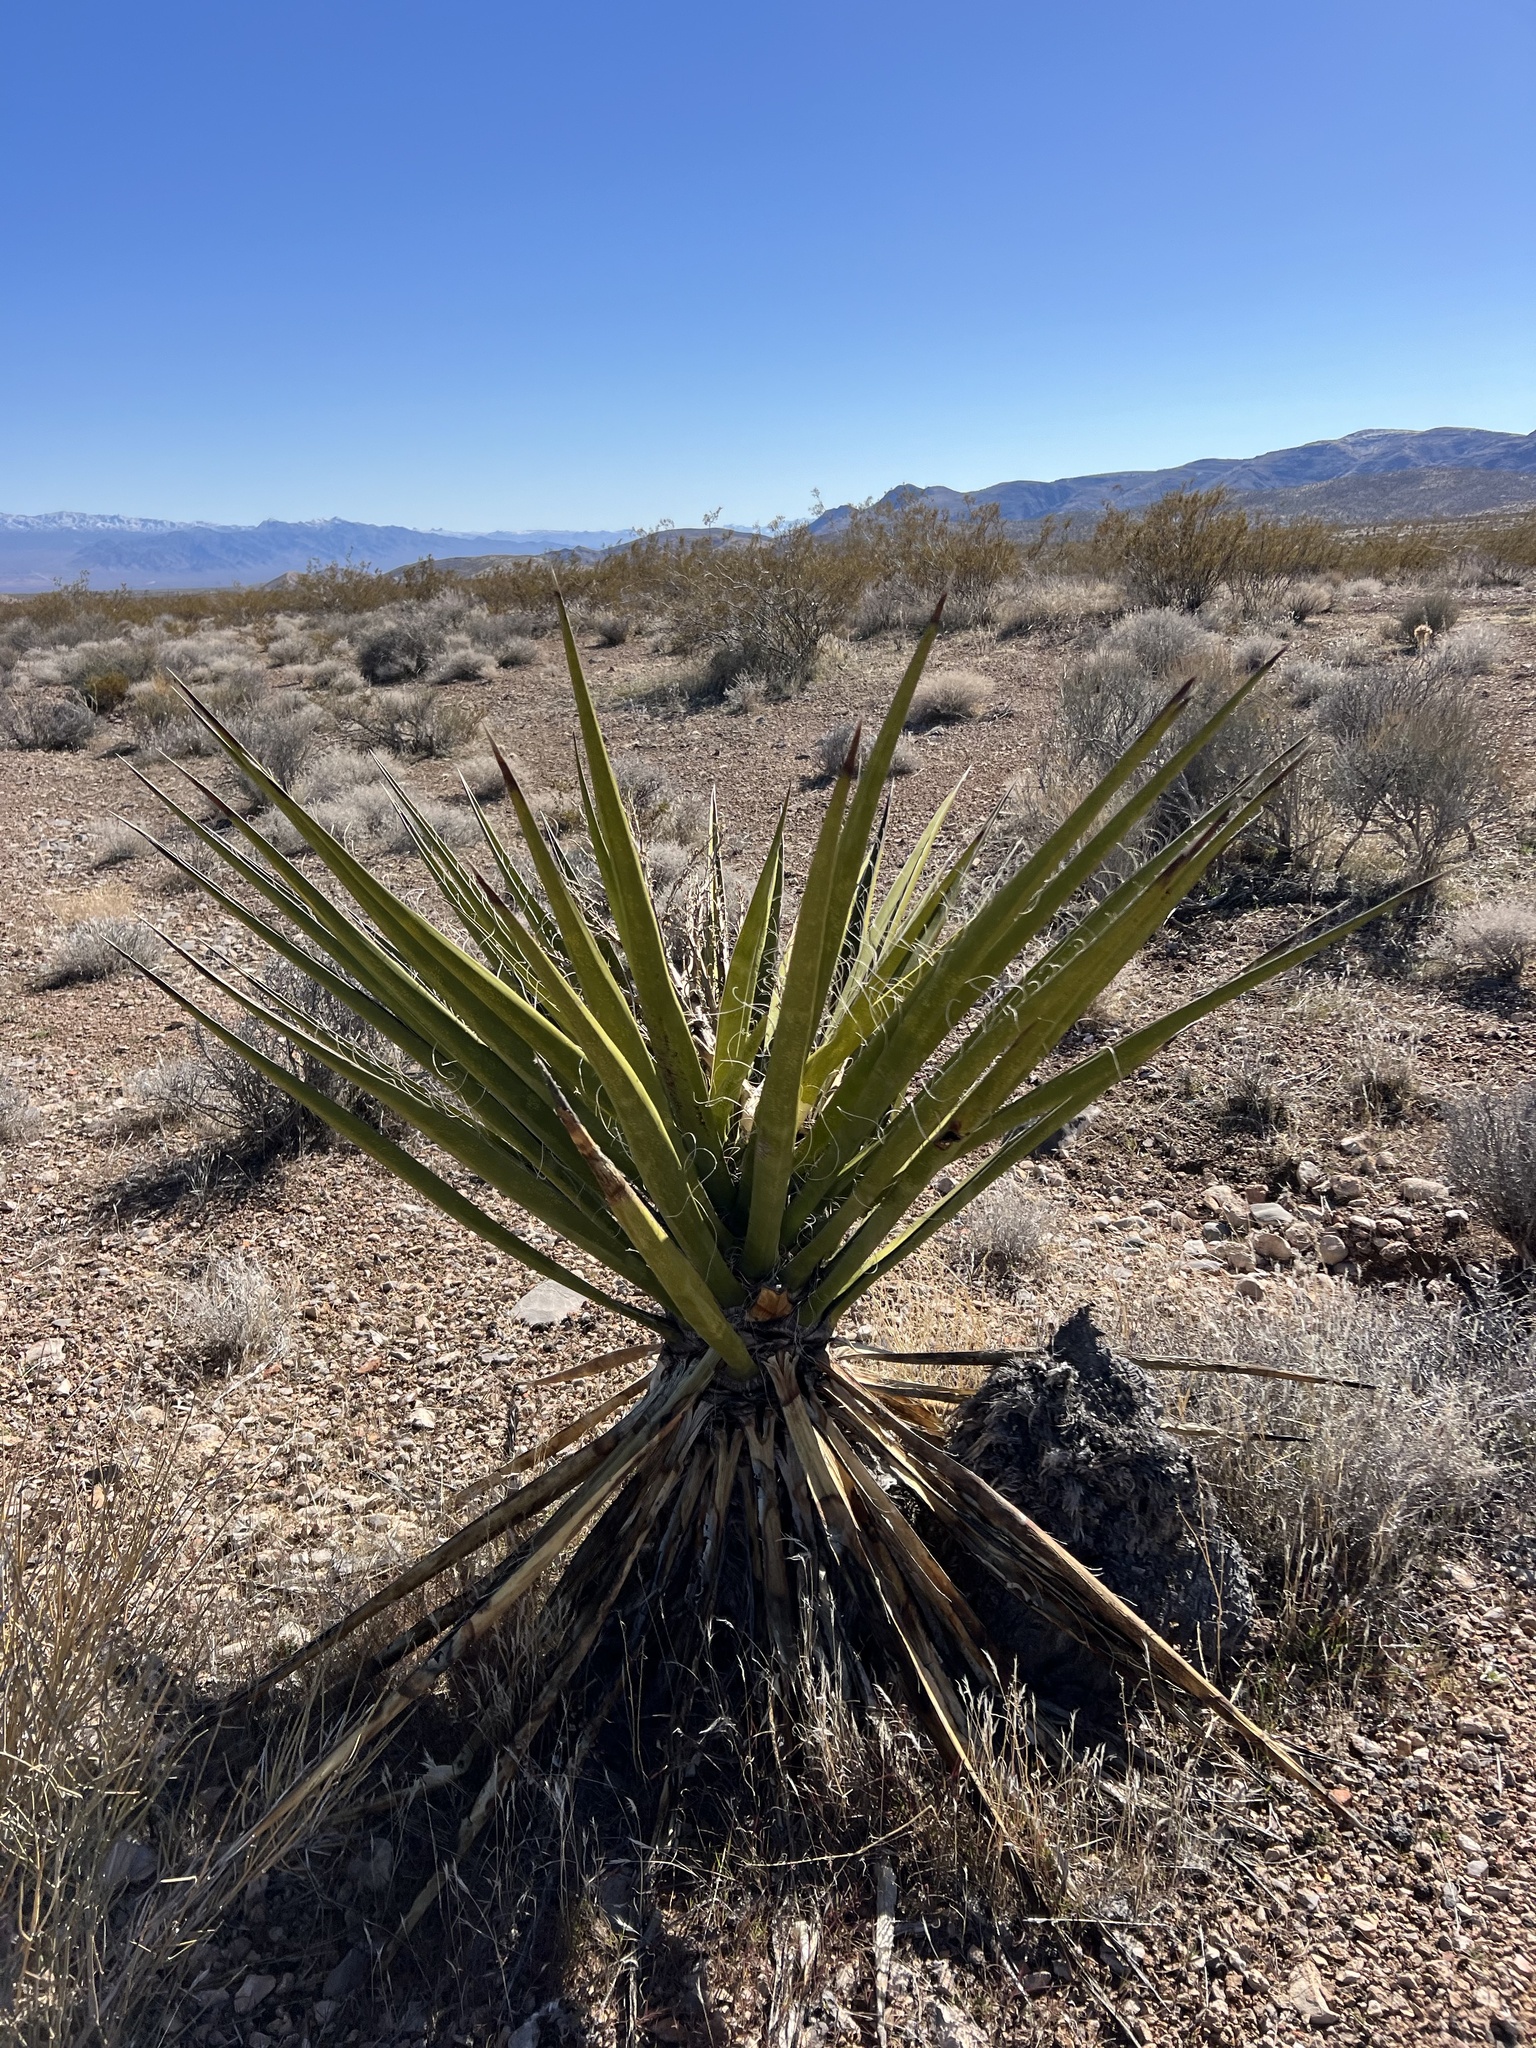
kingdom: Plantae
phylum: Tracheophyta
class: Liliopsida
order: Asparagales
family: Asparagaceae
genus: Yucca
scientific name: Yucca schidigera
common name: Mojave yucca
